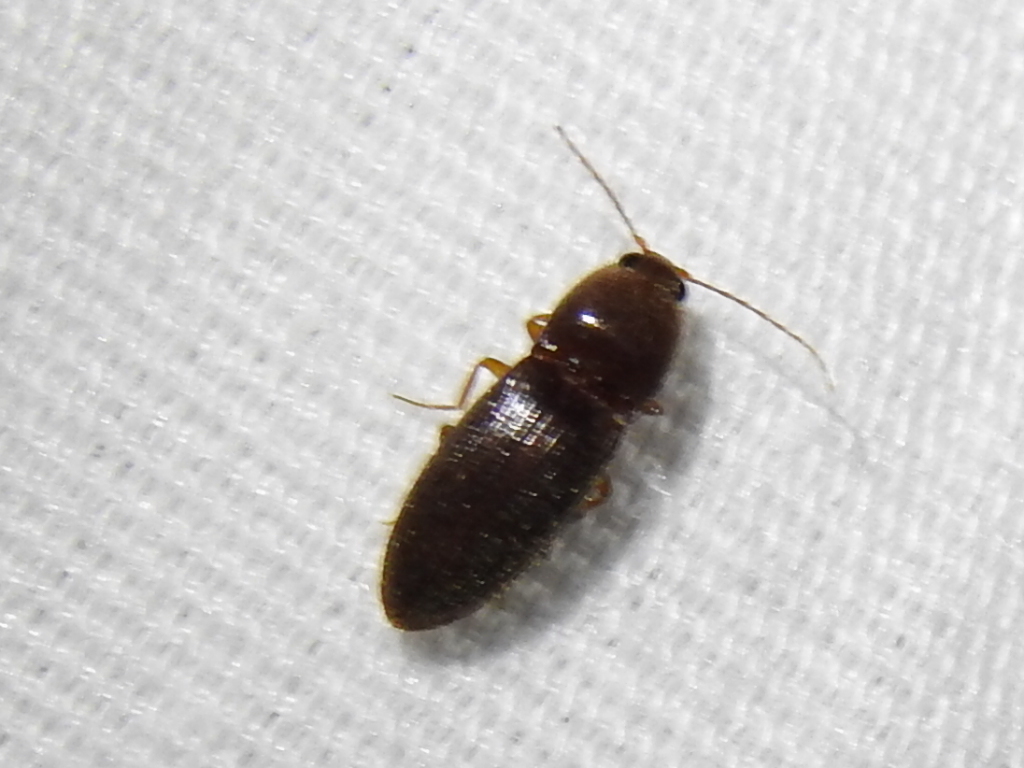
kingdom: Animalia
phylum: Arthropoda
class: Insecta
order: Coleoptera
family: Elateridae
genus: Horistonotus
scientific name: Horistonotus simplex
